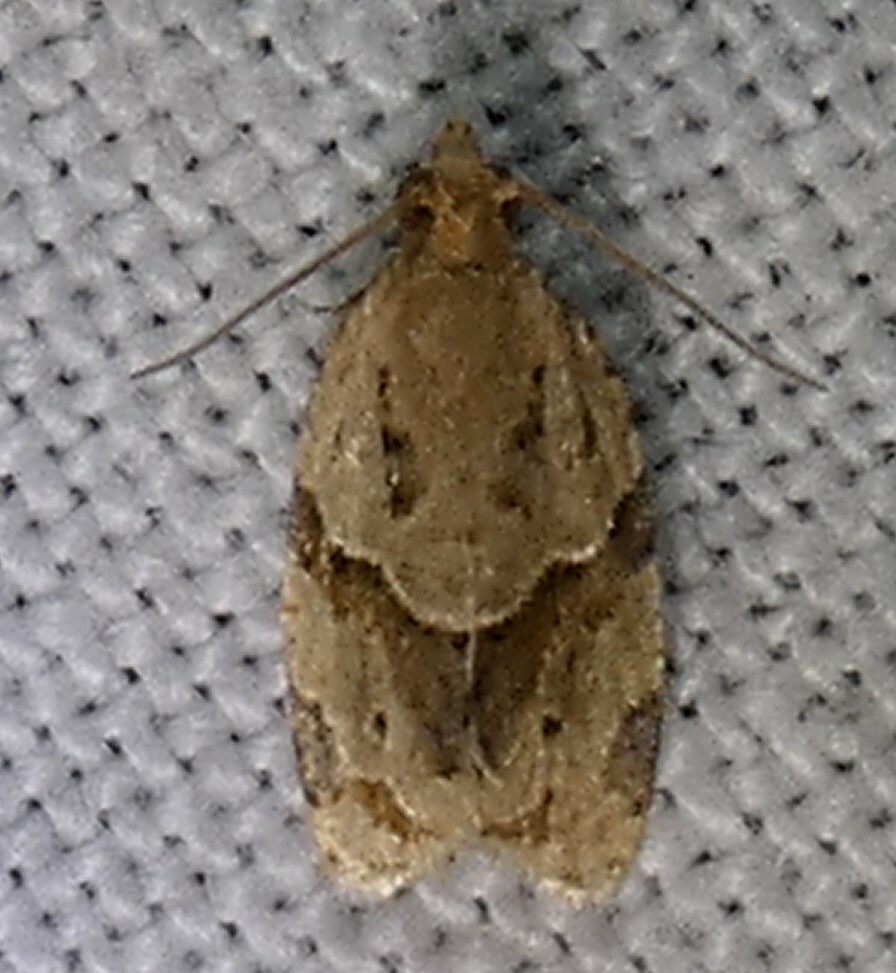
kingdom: Animalia
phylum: Arthropoda
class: Insecta
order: Lepidoptera
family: Tortricidae
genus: Clepsis
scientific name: Clepsis peritana
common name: Garden tortrix
